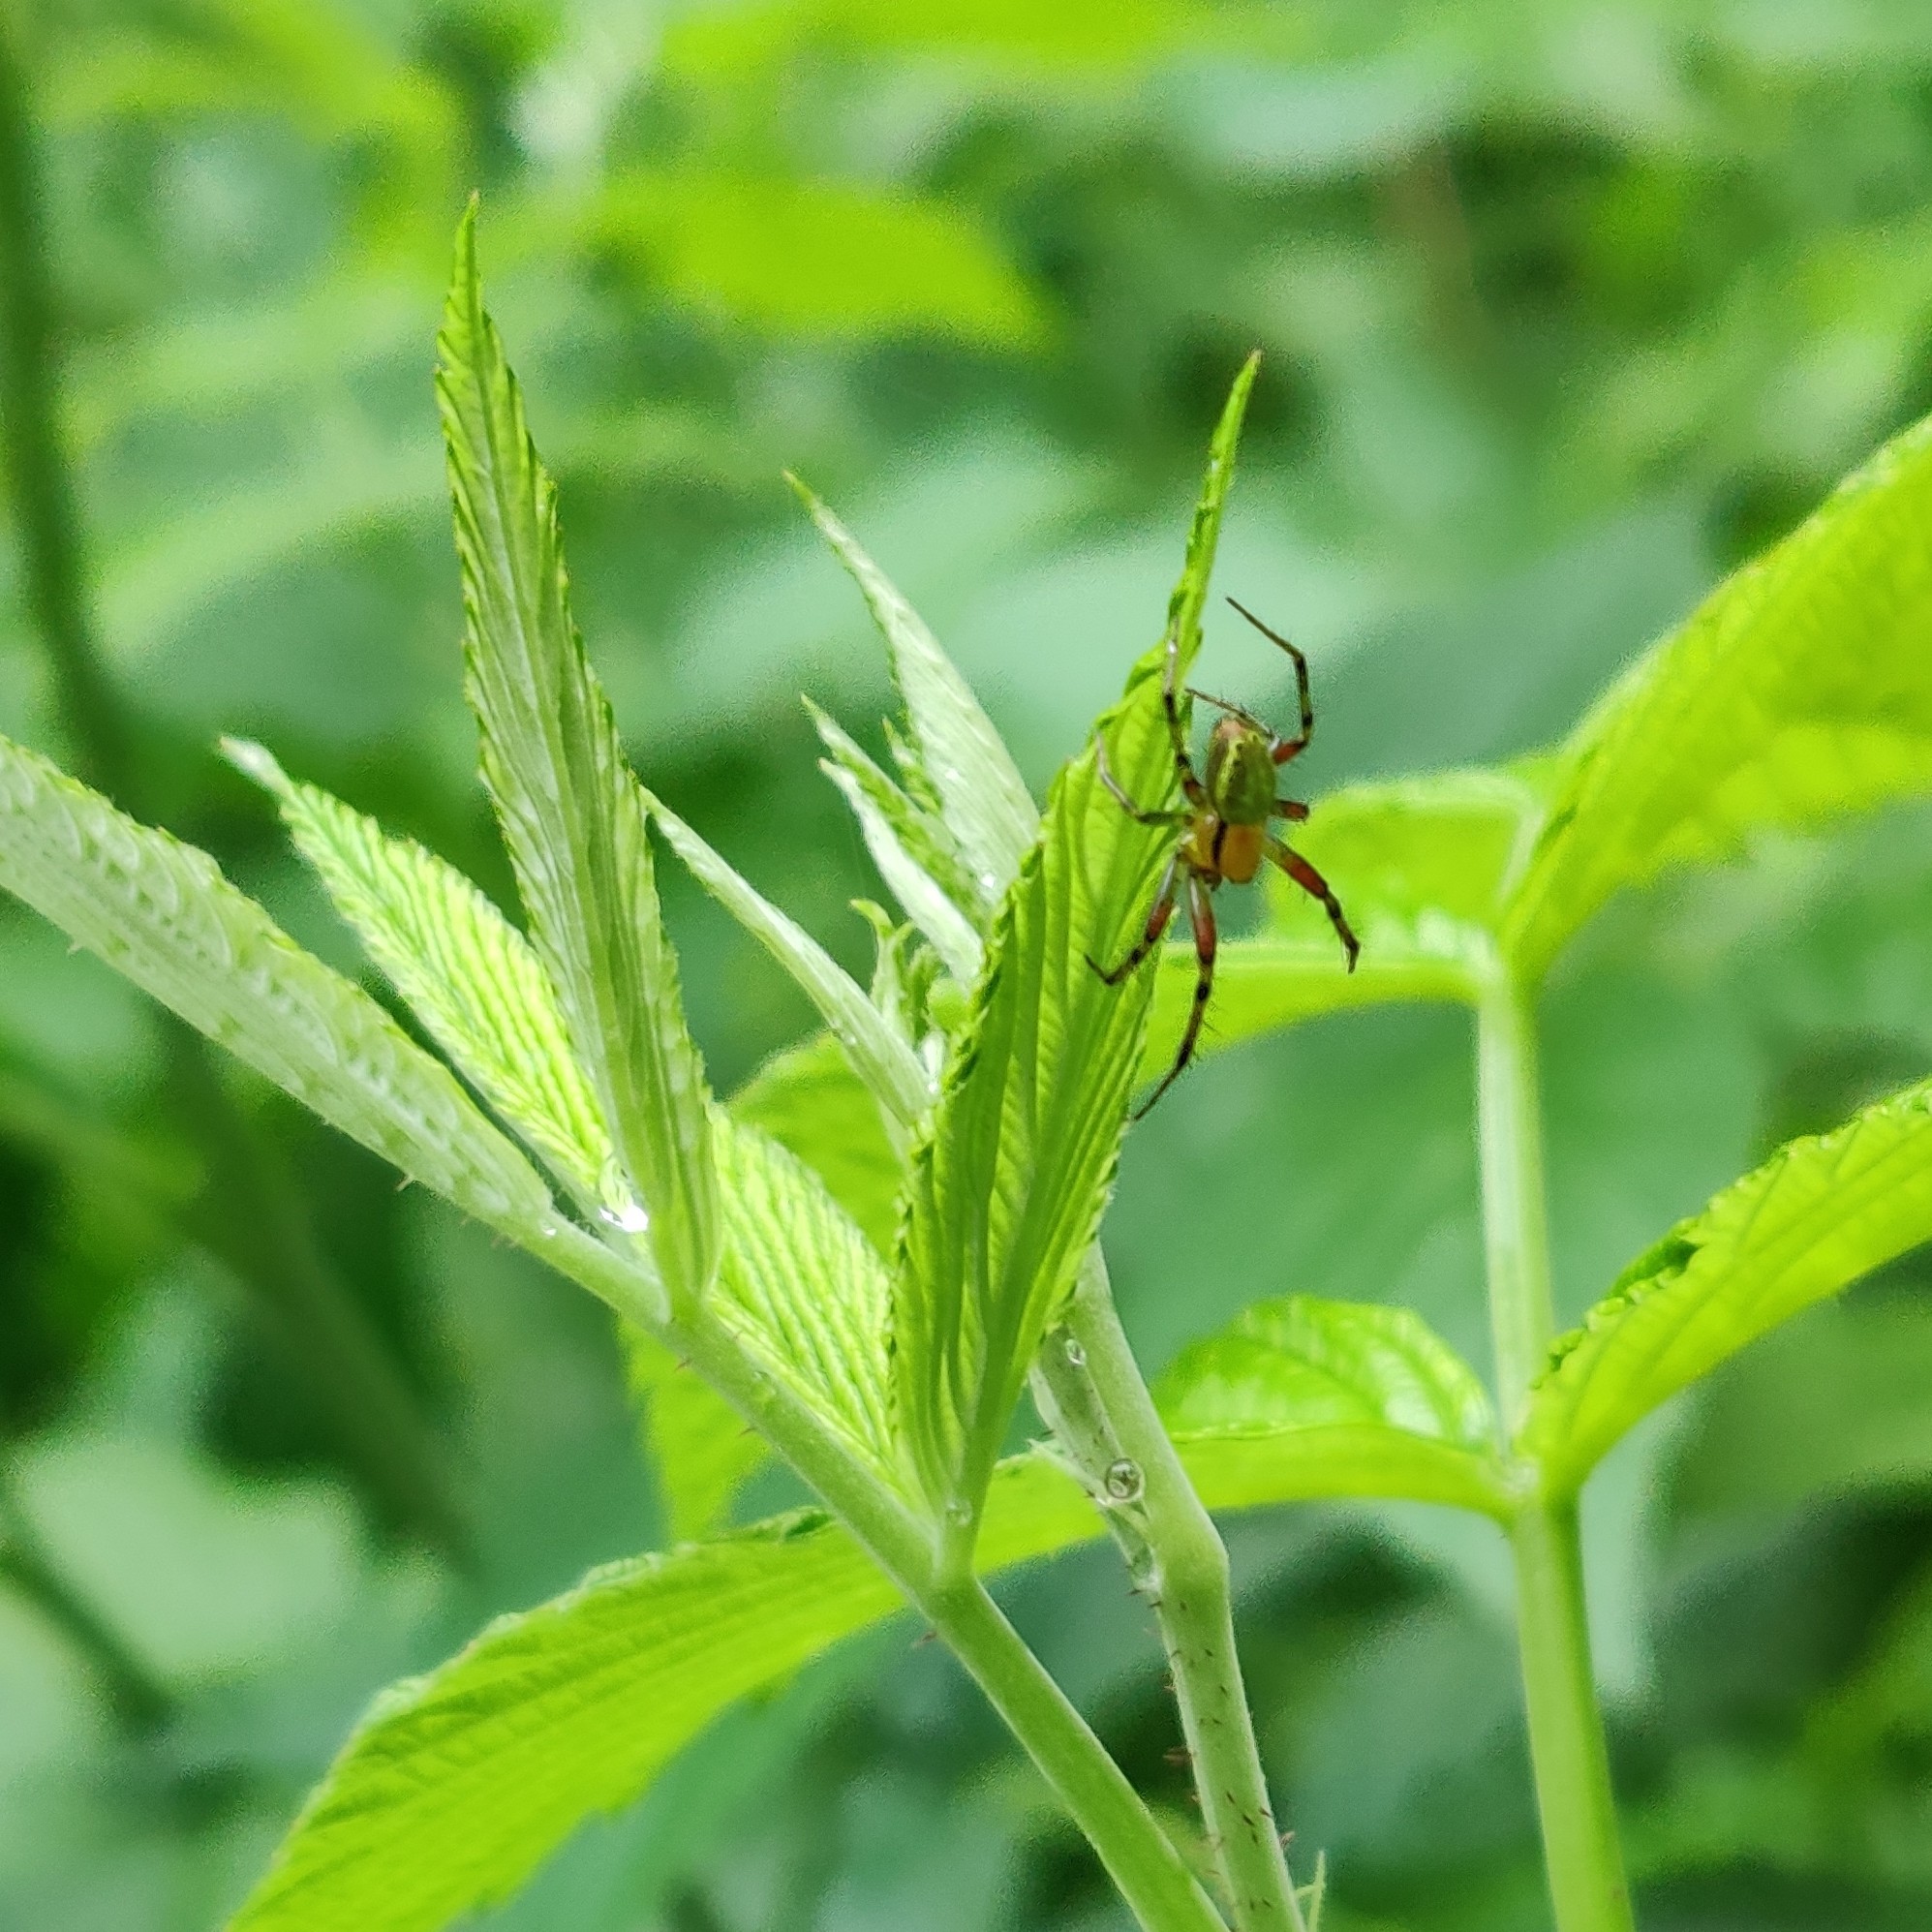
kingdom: Animalia
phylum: Arthropoda
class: Arachnida
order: Araneae
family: Araneidae
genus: Araniella
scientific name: Araniella
